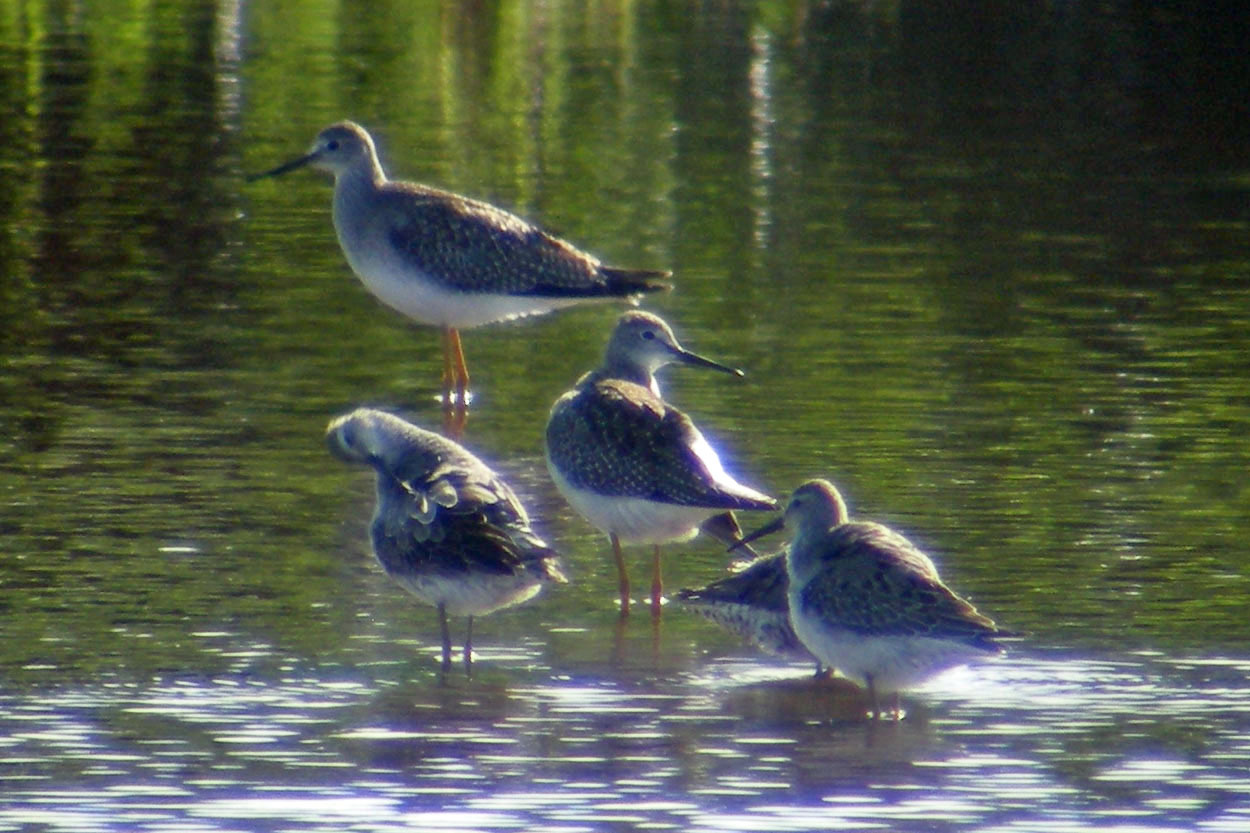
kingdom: Animalia
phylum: Chordata
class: Aves
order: Charadriiformes
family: Scolopacidae
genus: Calidris
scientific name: Calidris himantopus
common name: Stilt sandpiper
